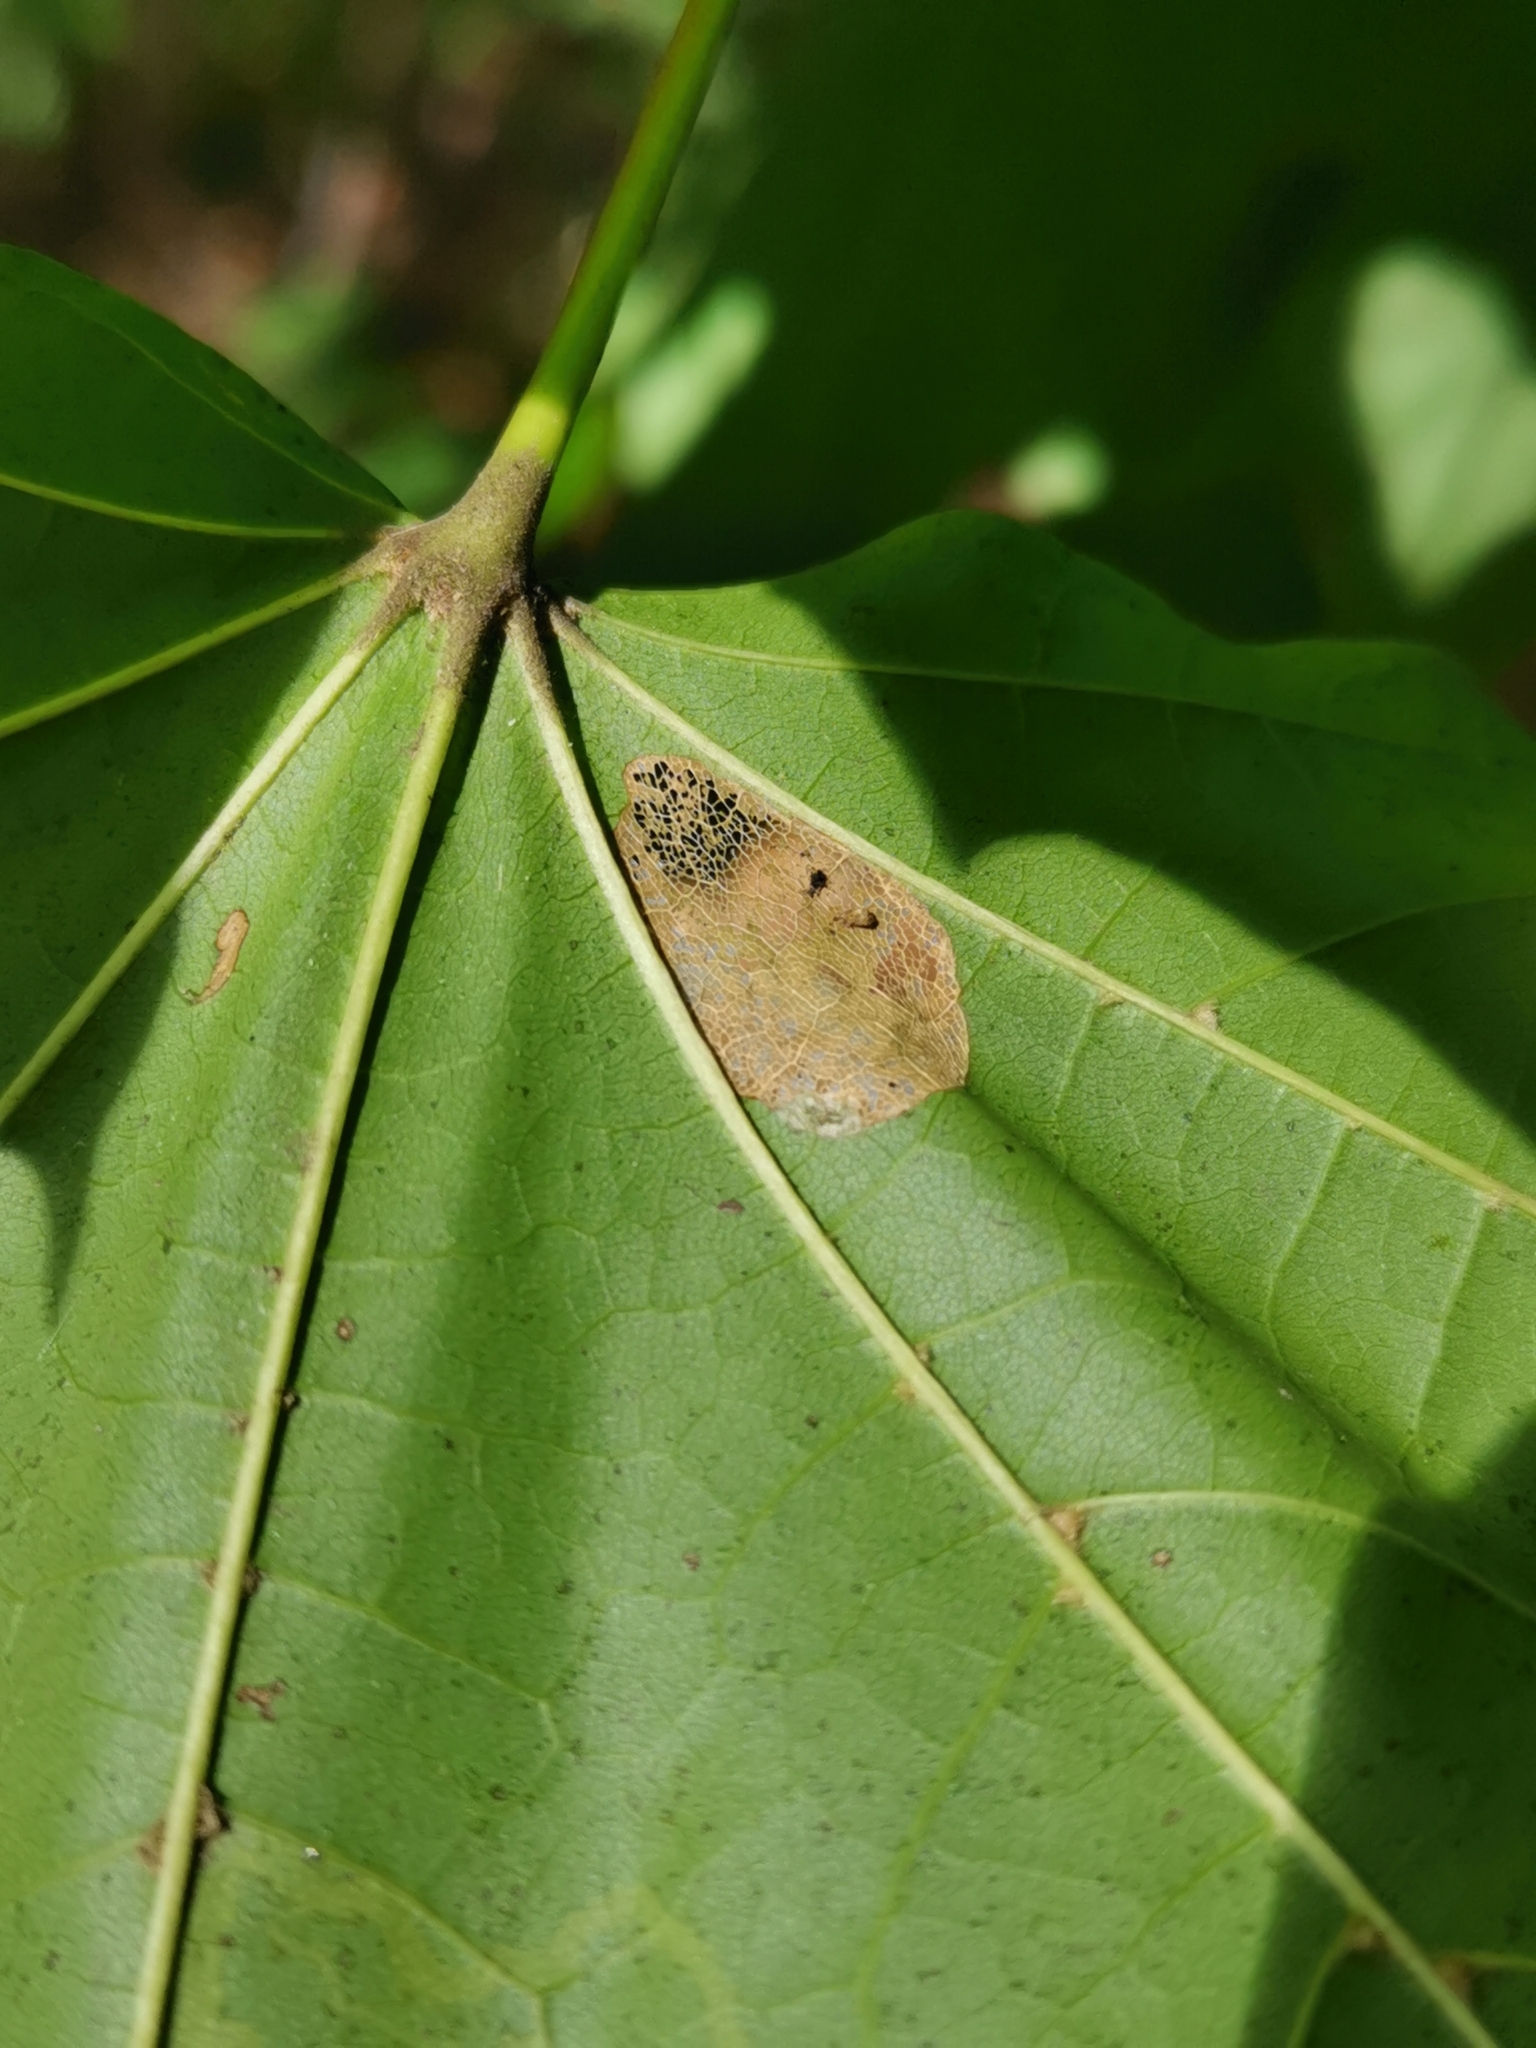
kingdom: Animalia
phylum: Arthropoda
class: Insecta
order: Lepidoptera
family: Gracillariidae
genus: Phyllonorycter
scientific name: Phyllonorycter joannisi
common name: White-bodied midget
